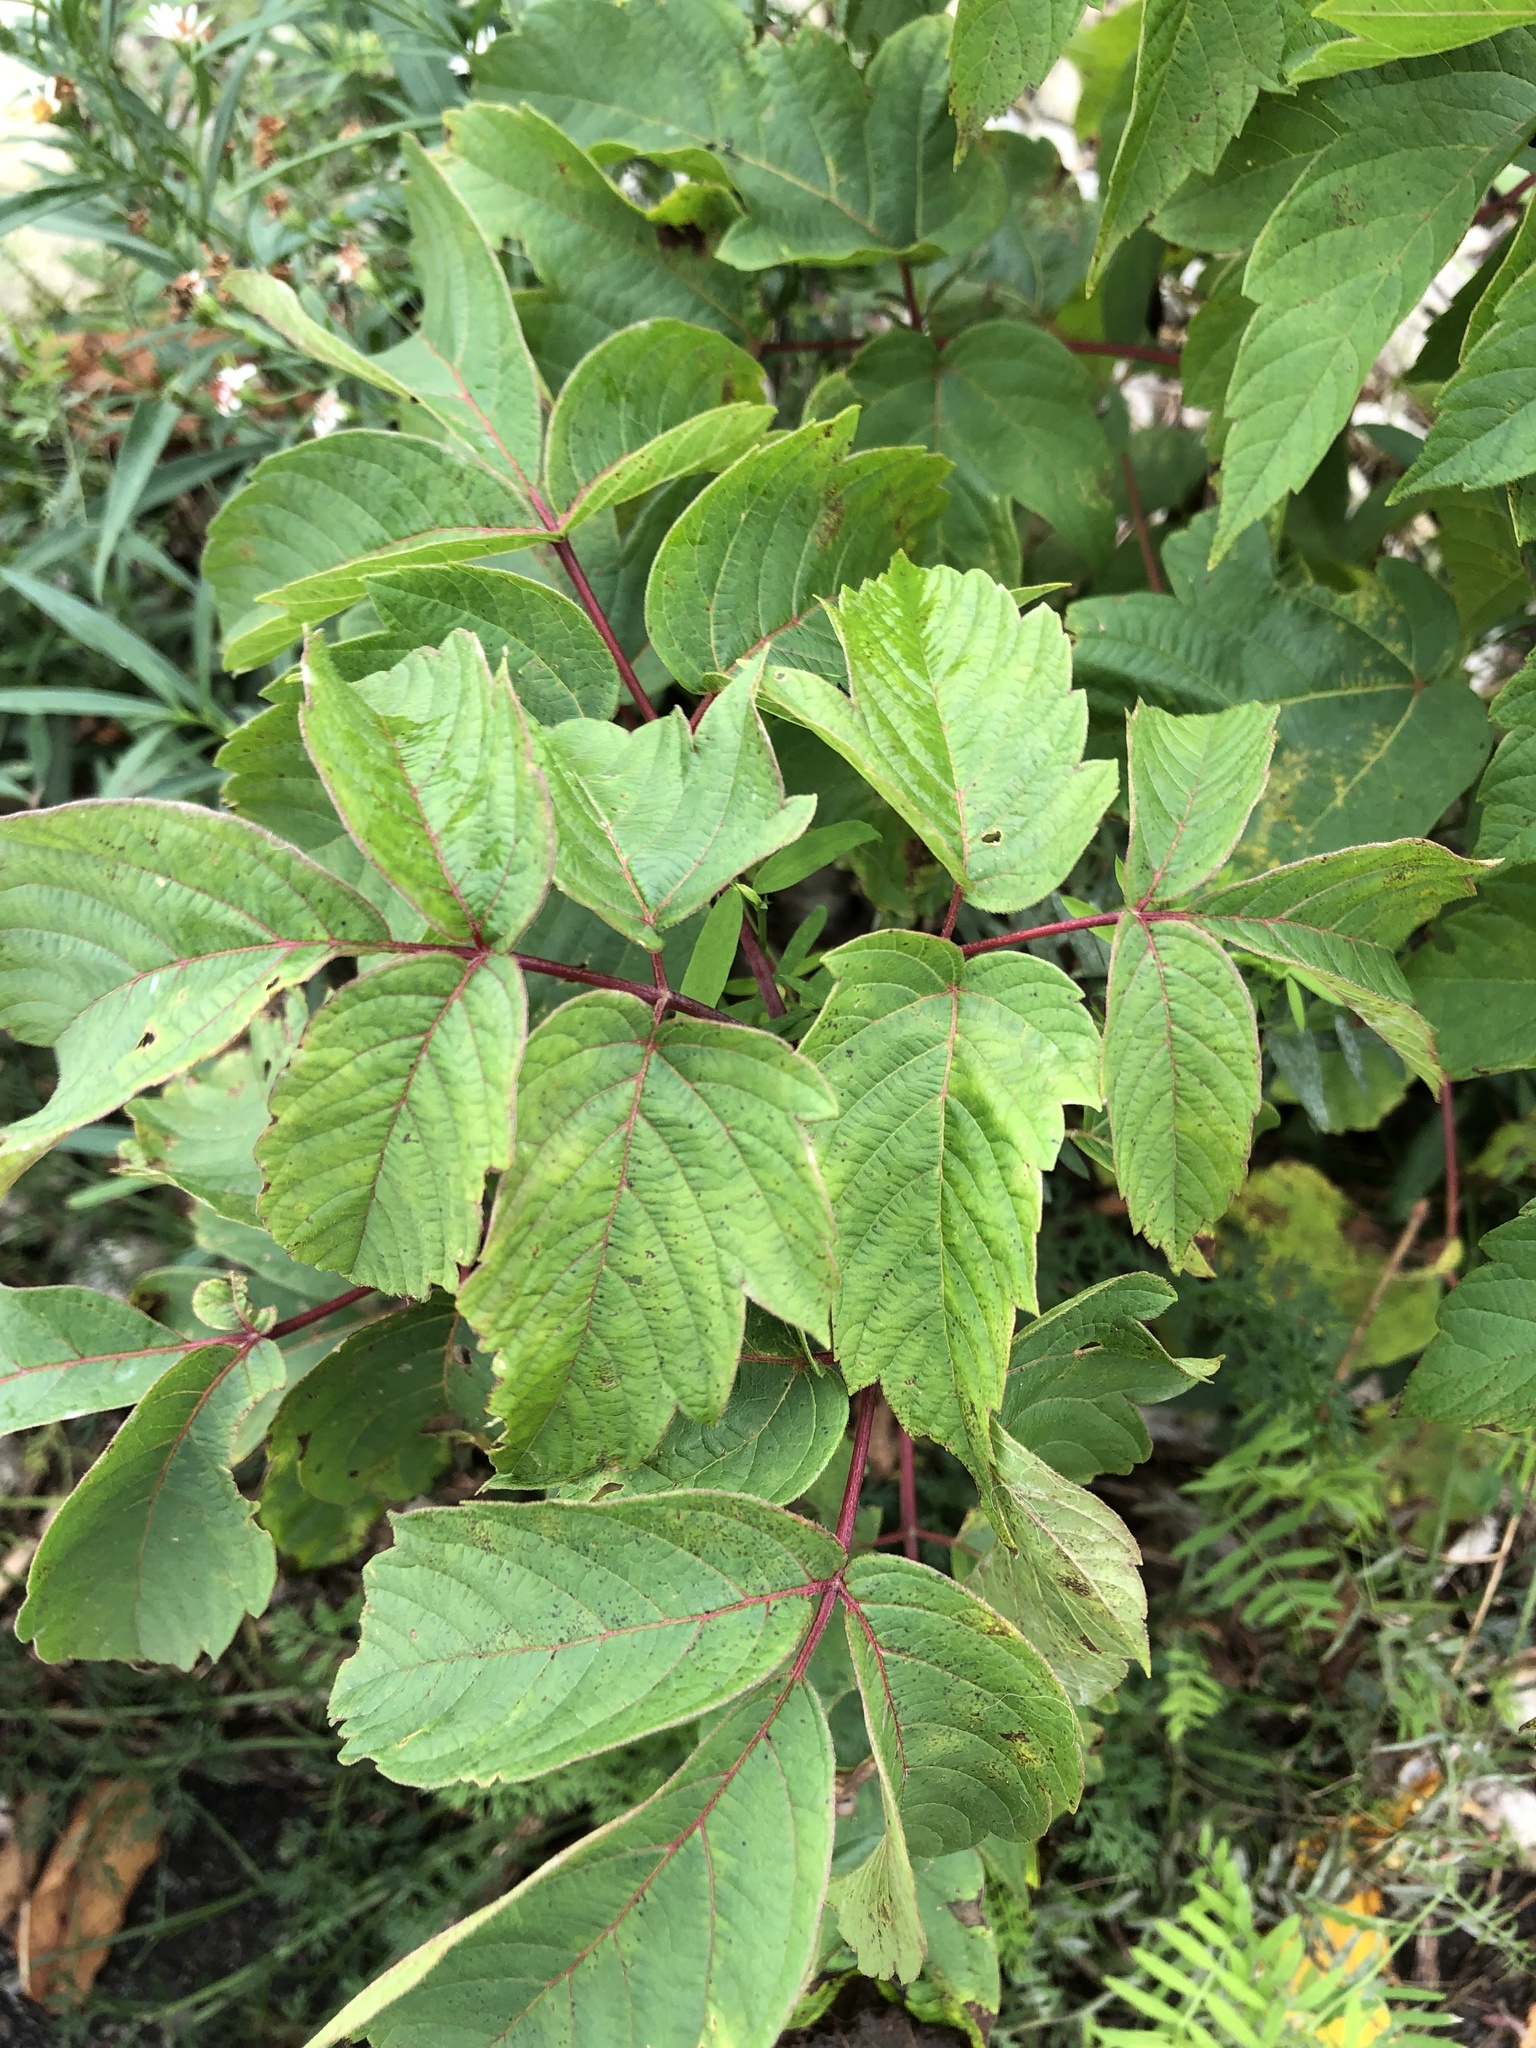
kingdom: Plantae
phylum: Tracheophyta
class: Magnoliopsida
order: Sapindales
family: Sapindaceae
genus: Acer
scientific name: Acer negundo
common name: Ashleaf maple
